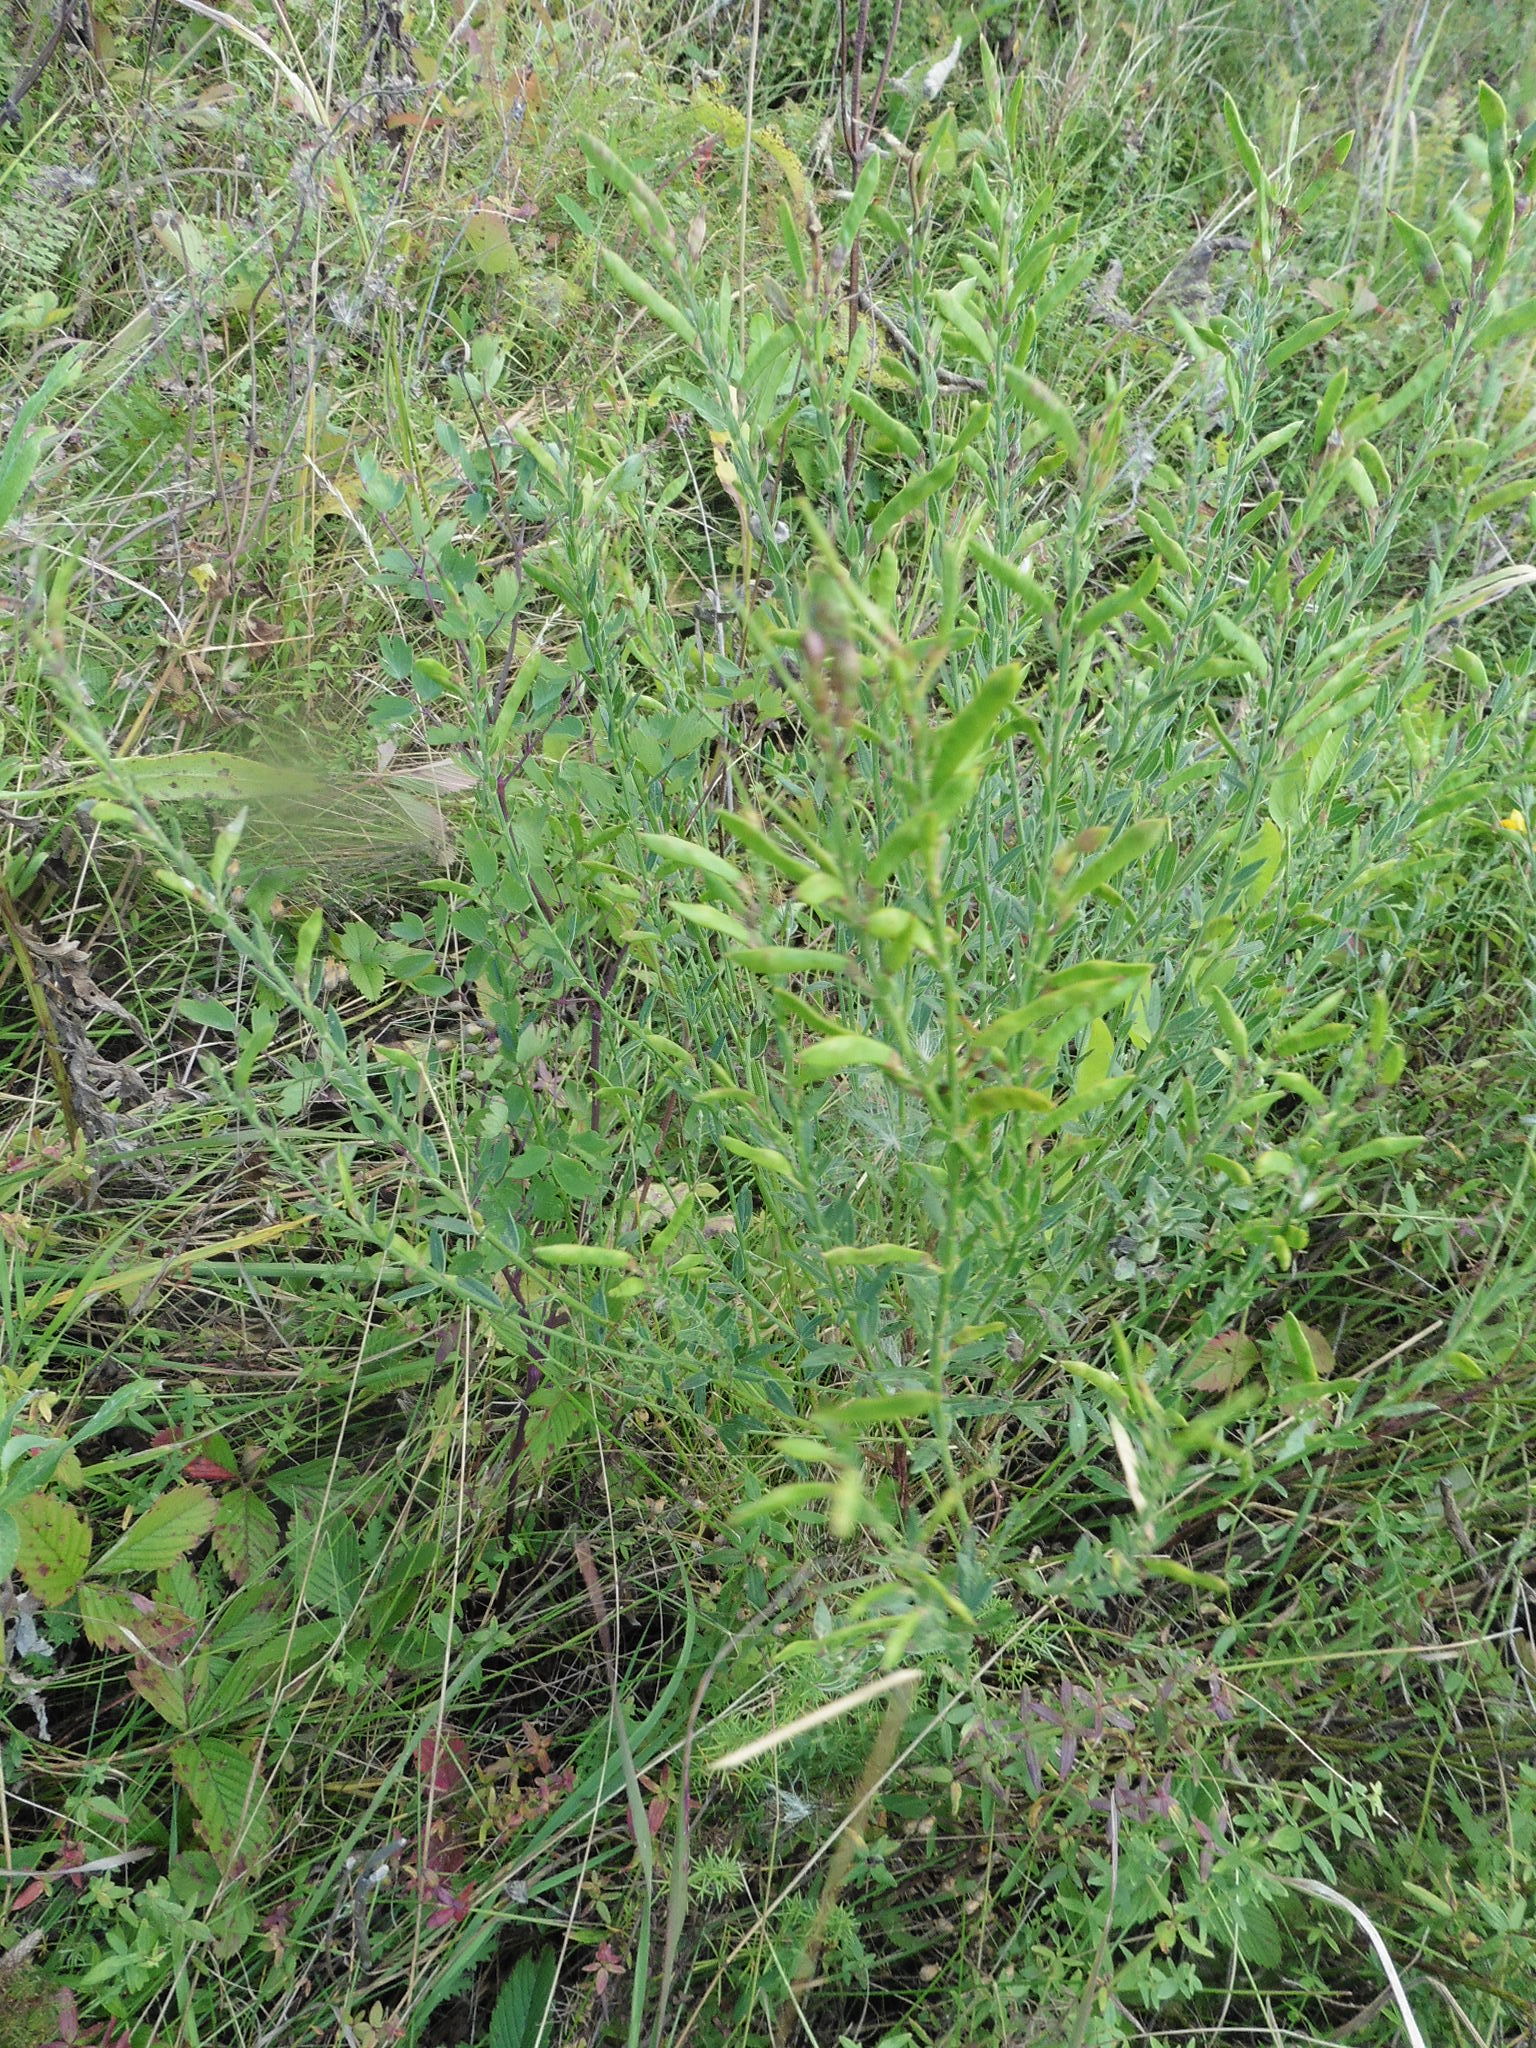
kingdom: Plantae
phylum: Tracheophyta
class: Magnoliopsida
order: Fabales
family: Fabaceae
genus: Genista
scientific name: Genista tinctoria
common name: Dyer's greenweed
